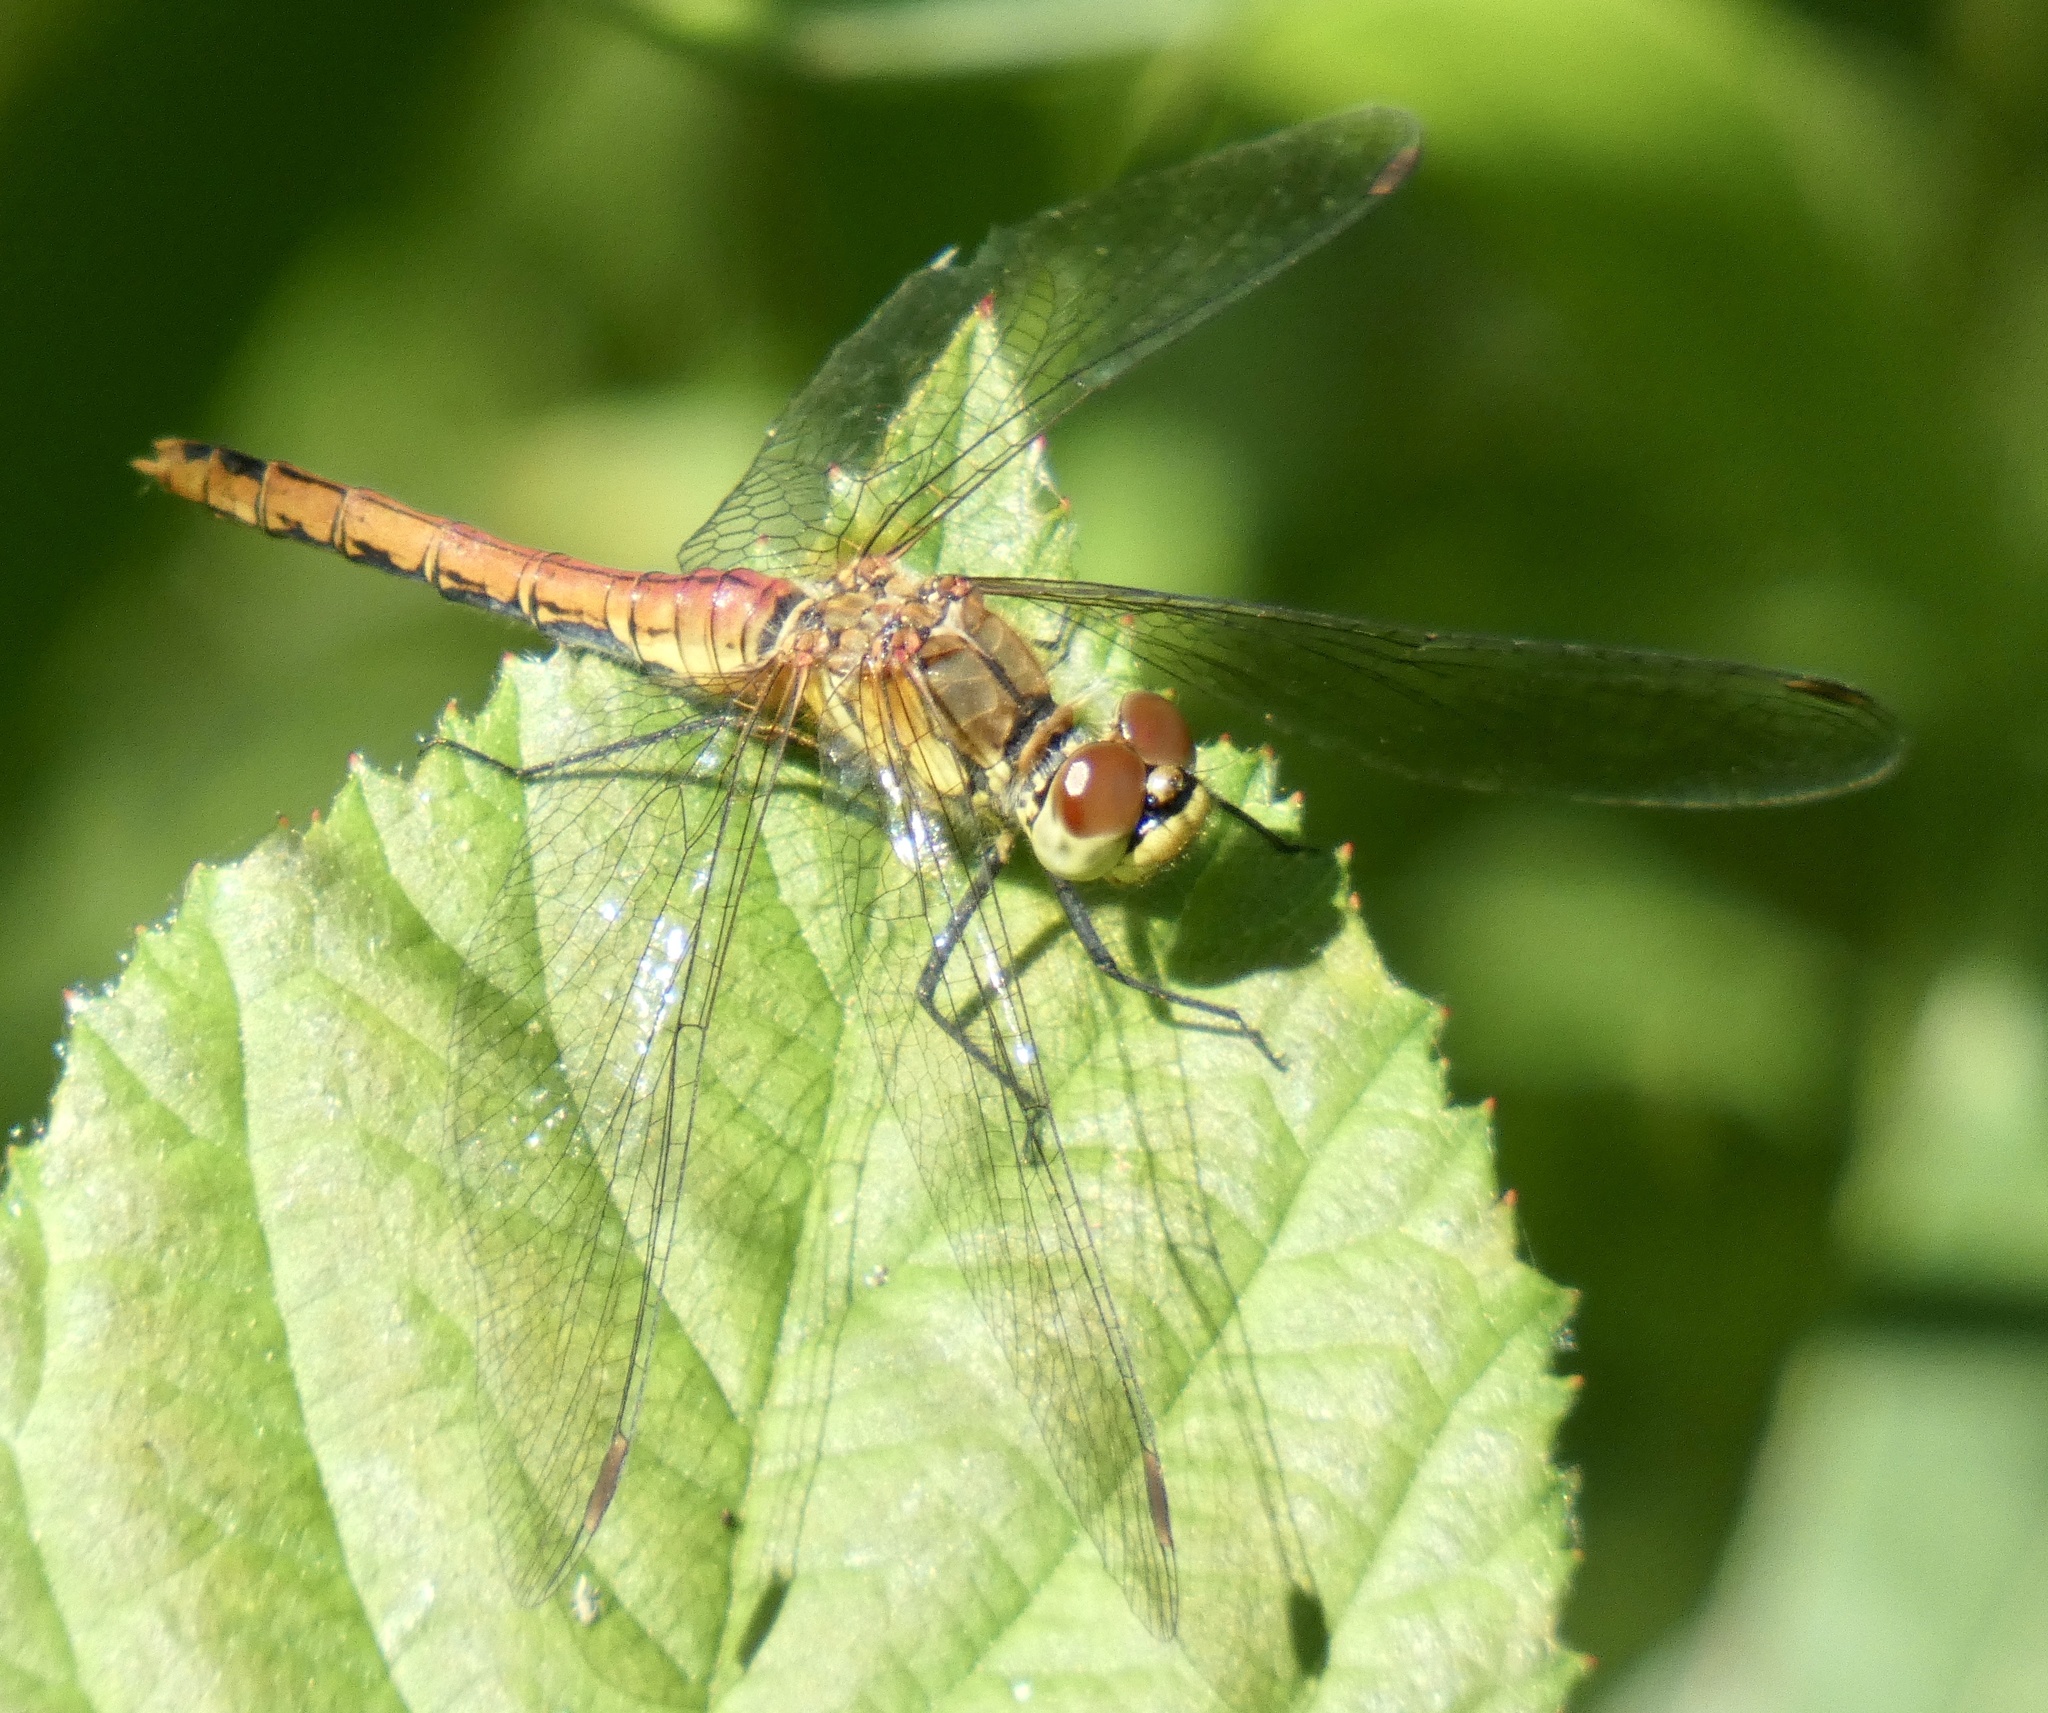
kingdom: Animalia
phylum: Arthropoda
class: Insecta
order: Odonata
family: Libellulidae
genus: Sympetrum
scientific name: Sympetrum sanguineum
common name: Ruddy darter
